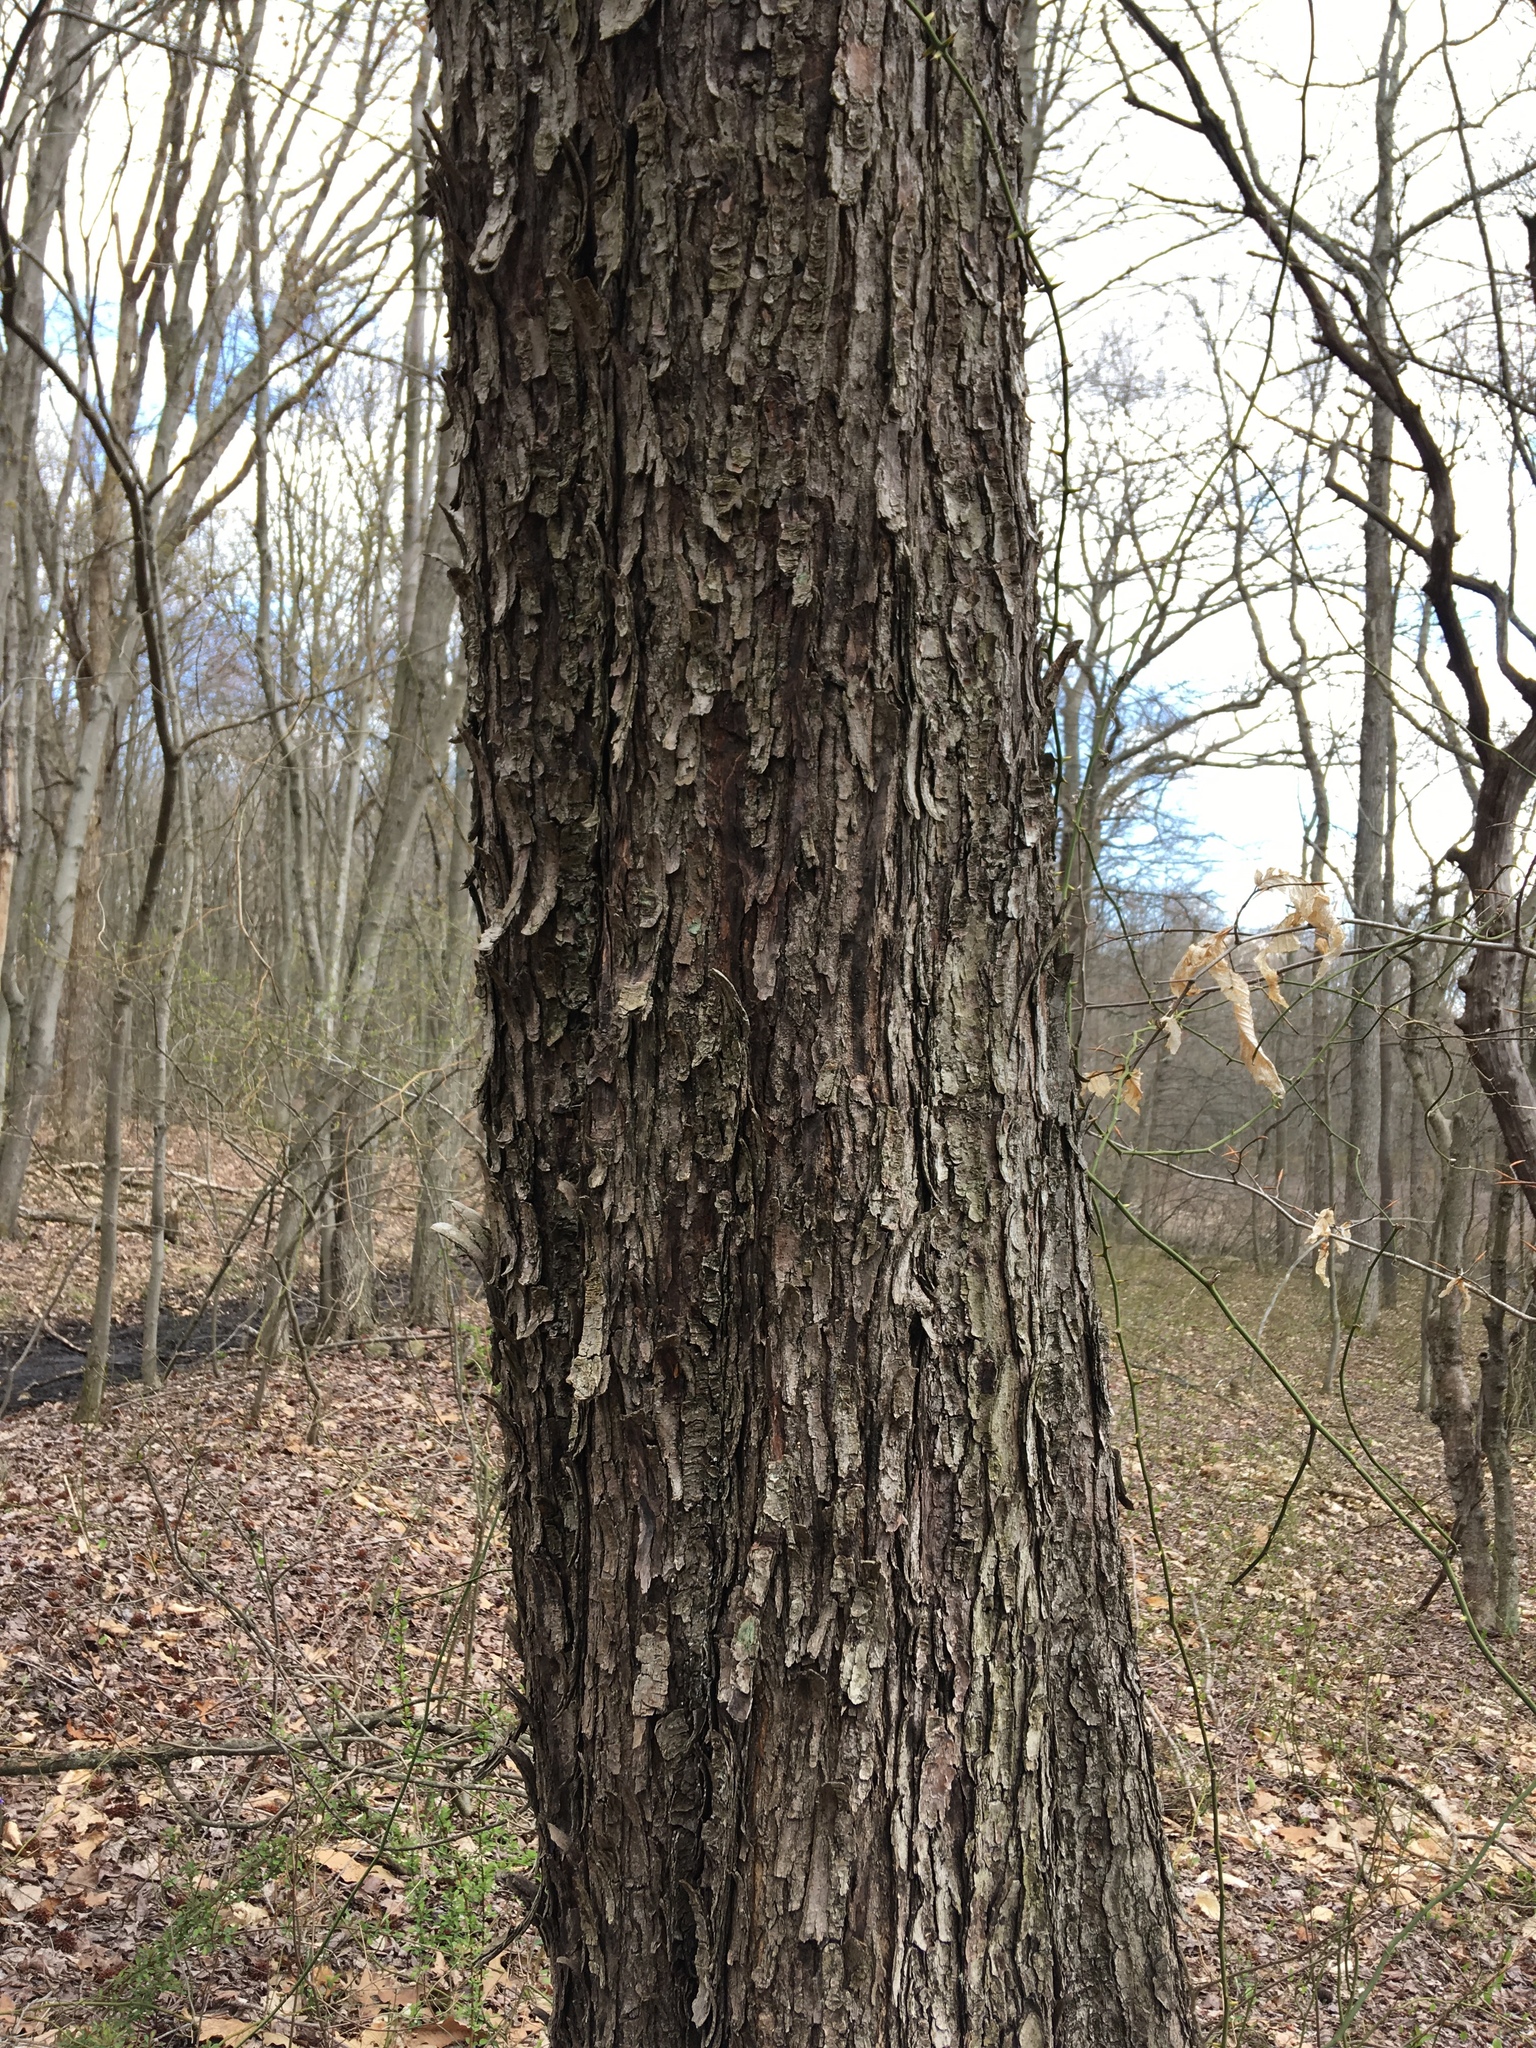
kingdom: Plantae
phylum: Tracheophyta
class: Magnoliopsida
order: Fagales
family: Betulaceae
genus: Ostrya
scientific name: Ostrya virginiana
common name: Ironwood
